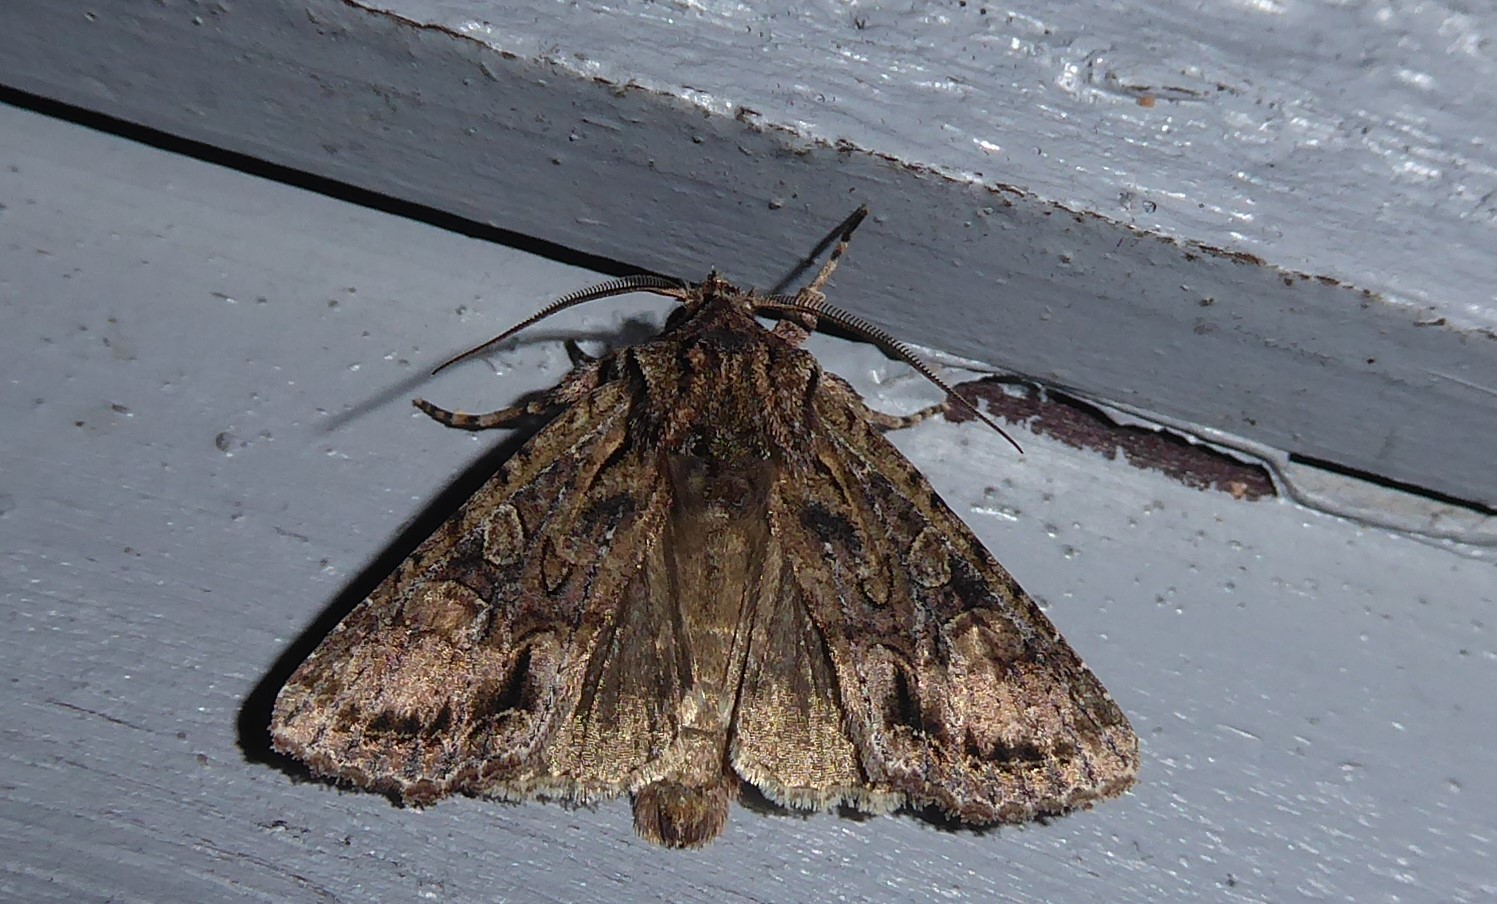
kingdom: Animalia
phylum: Arthropoda
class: Insecta
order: Lepidoptera
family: Noctuidae
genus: Ichneutica
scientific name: Ichneutica mutans
